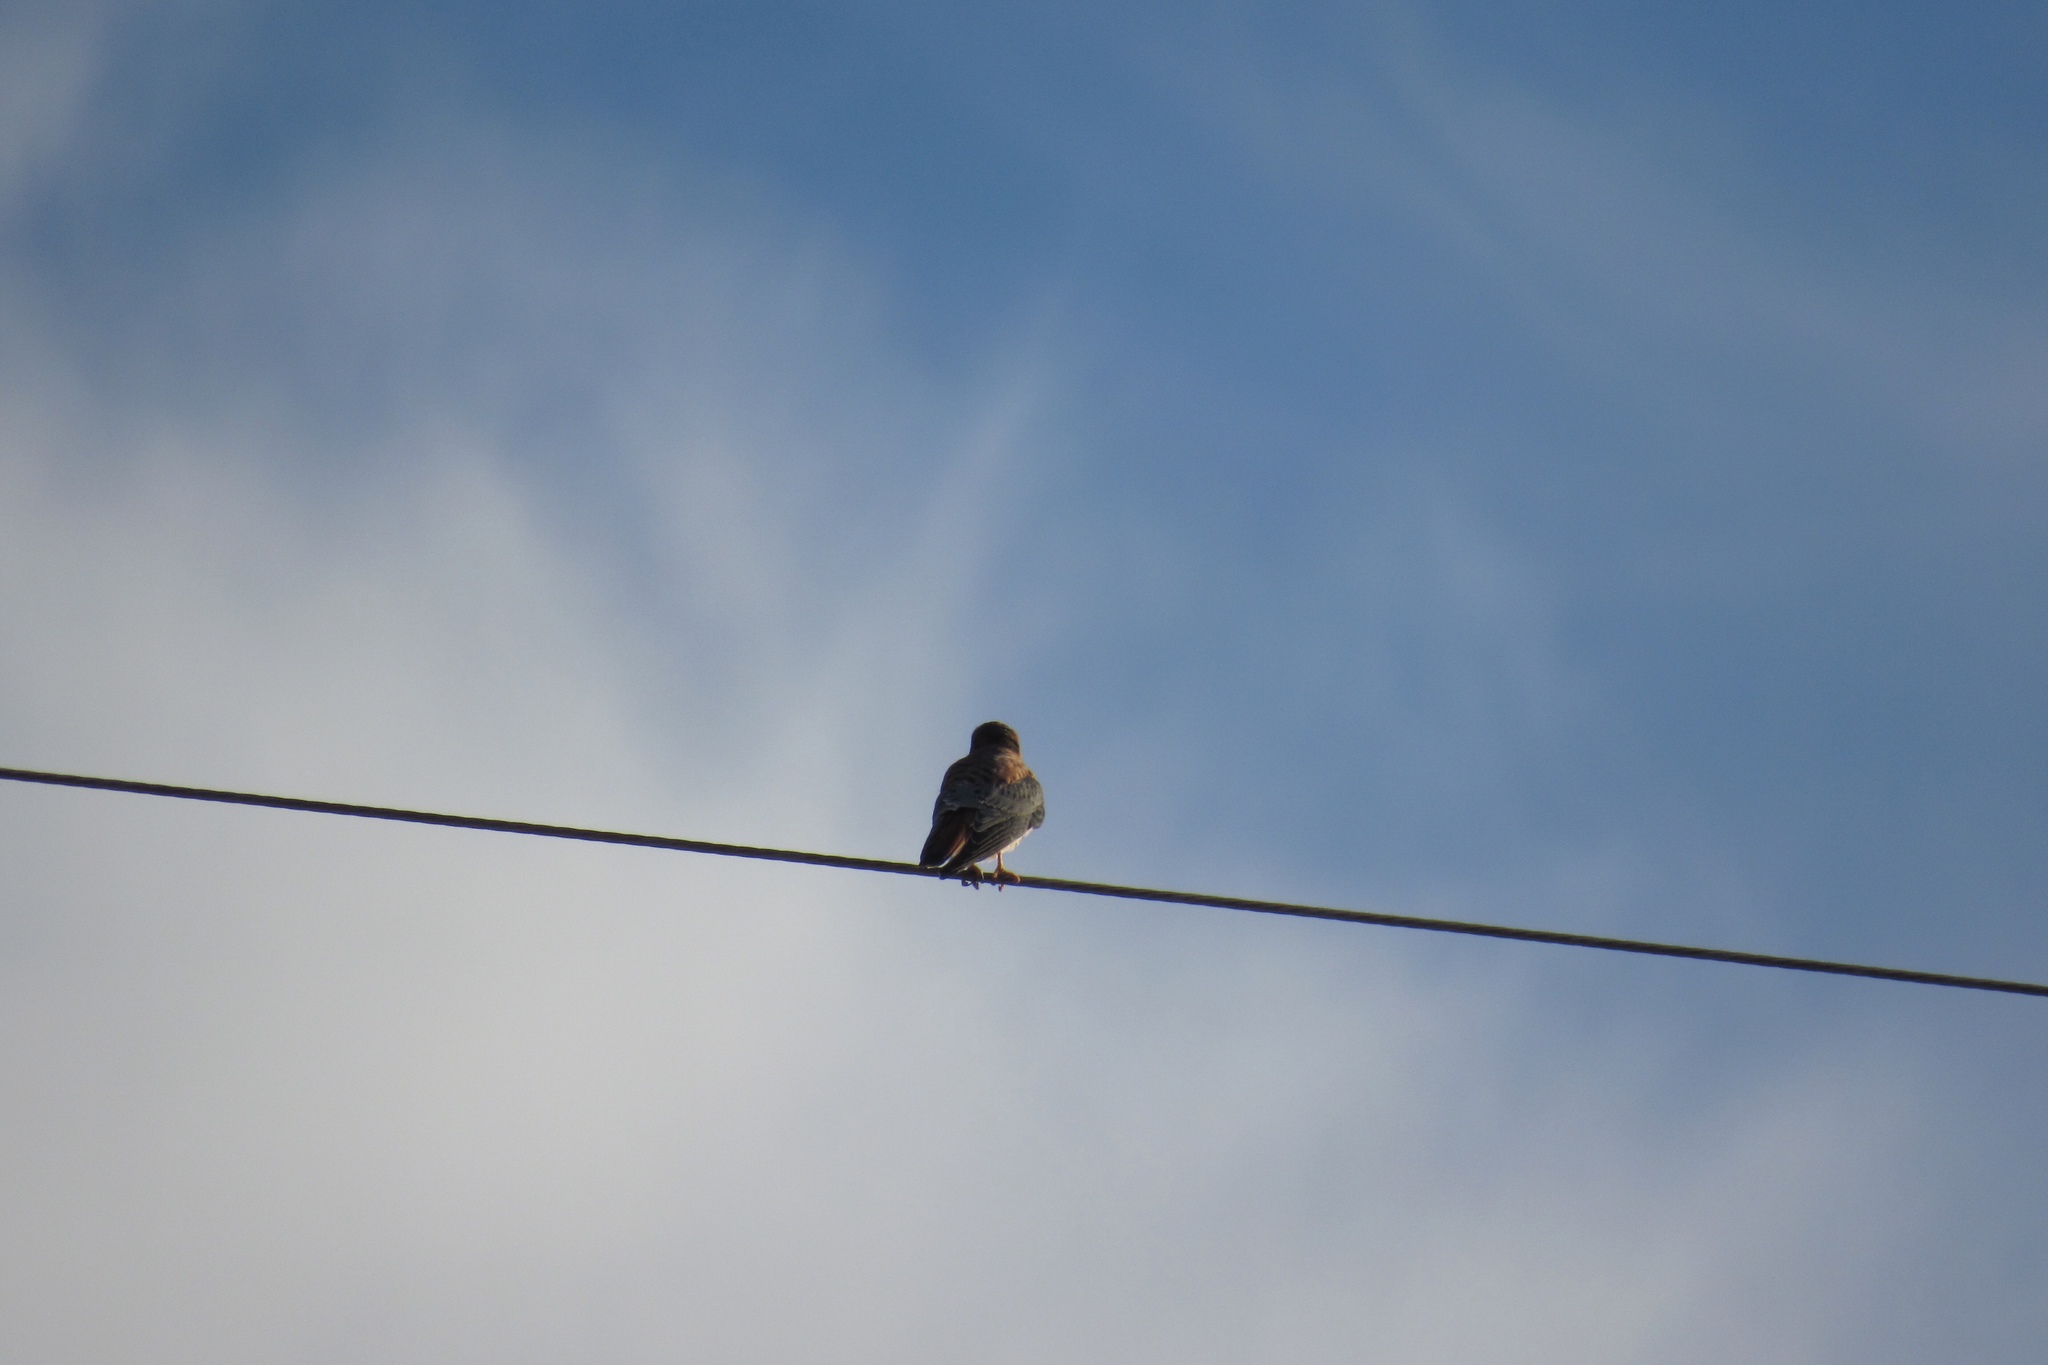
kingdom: Animalia
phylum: Chordata
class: Aves
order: Falconiformes
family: Falconidae
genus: Falco
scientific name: Falco sparverius
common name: American kestrel
